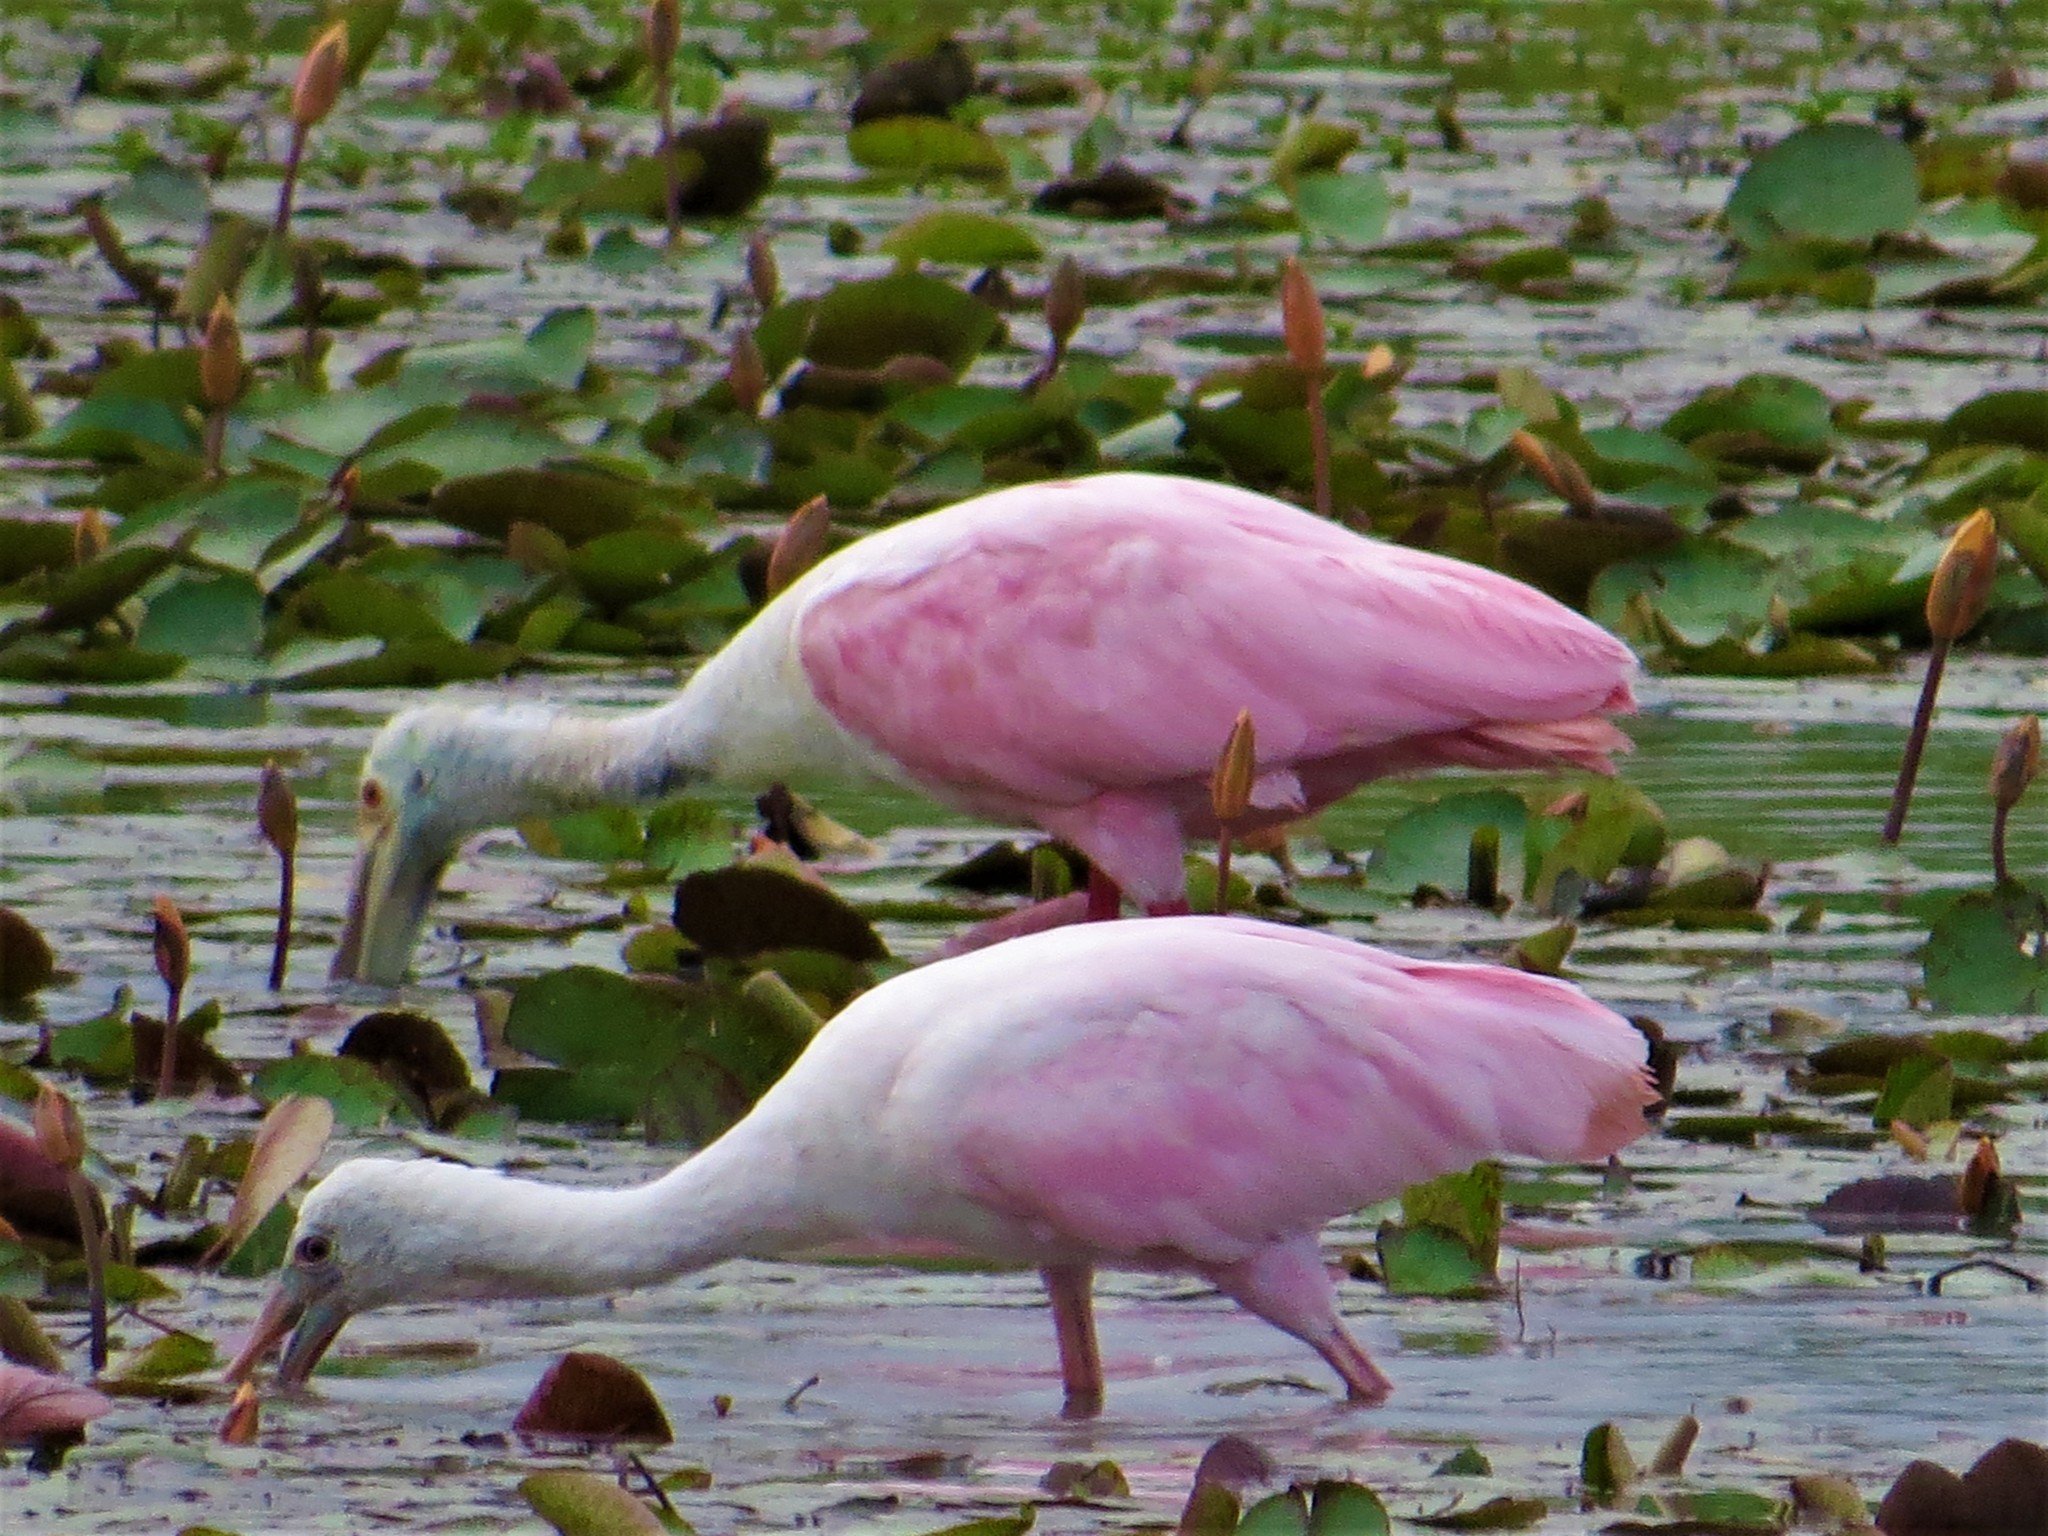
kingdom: Animalia
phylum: Chordata
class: Aves
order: Pelecaniformes
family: Threskiornithidae
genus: Platalea
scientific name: Platalea ajaja
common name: Roseate spoonbill
